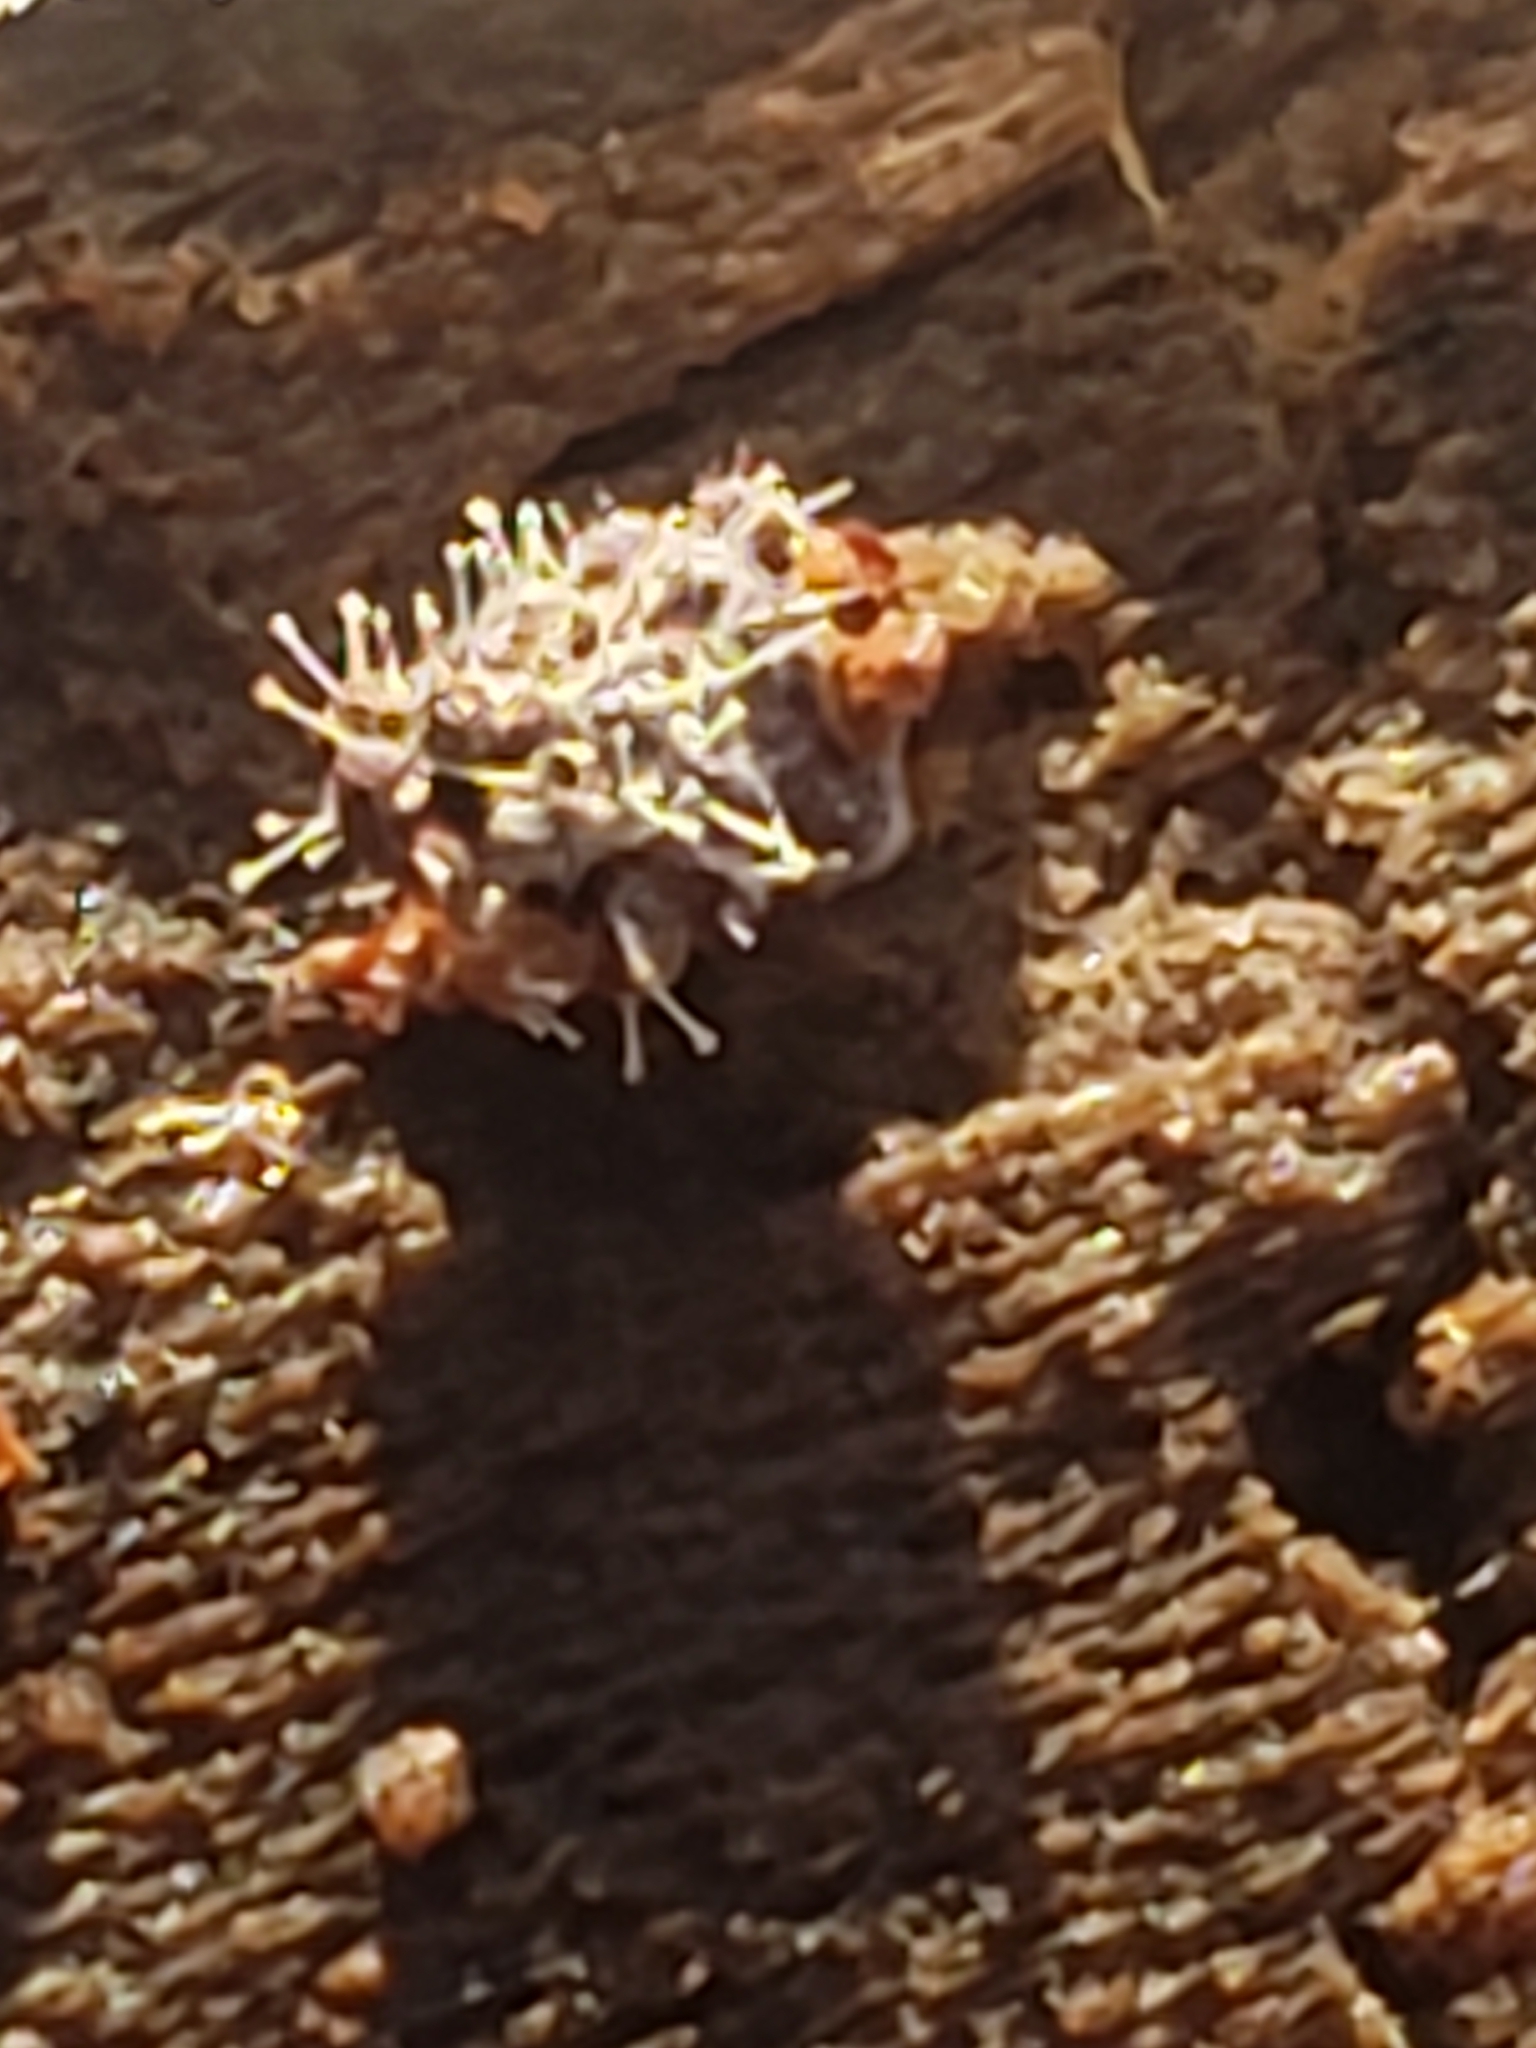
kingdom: Fungi
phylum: Ascomycota
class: Sordariomycetes
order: Hypocreales
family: Ophiocordycipitaceae
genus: Polycephalomyces
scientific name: Polycephalomyces tomentosus
